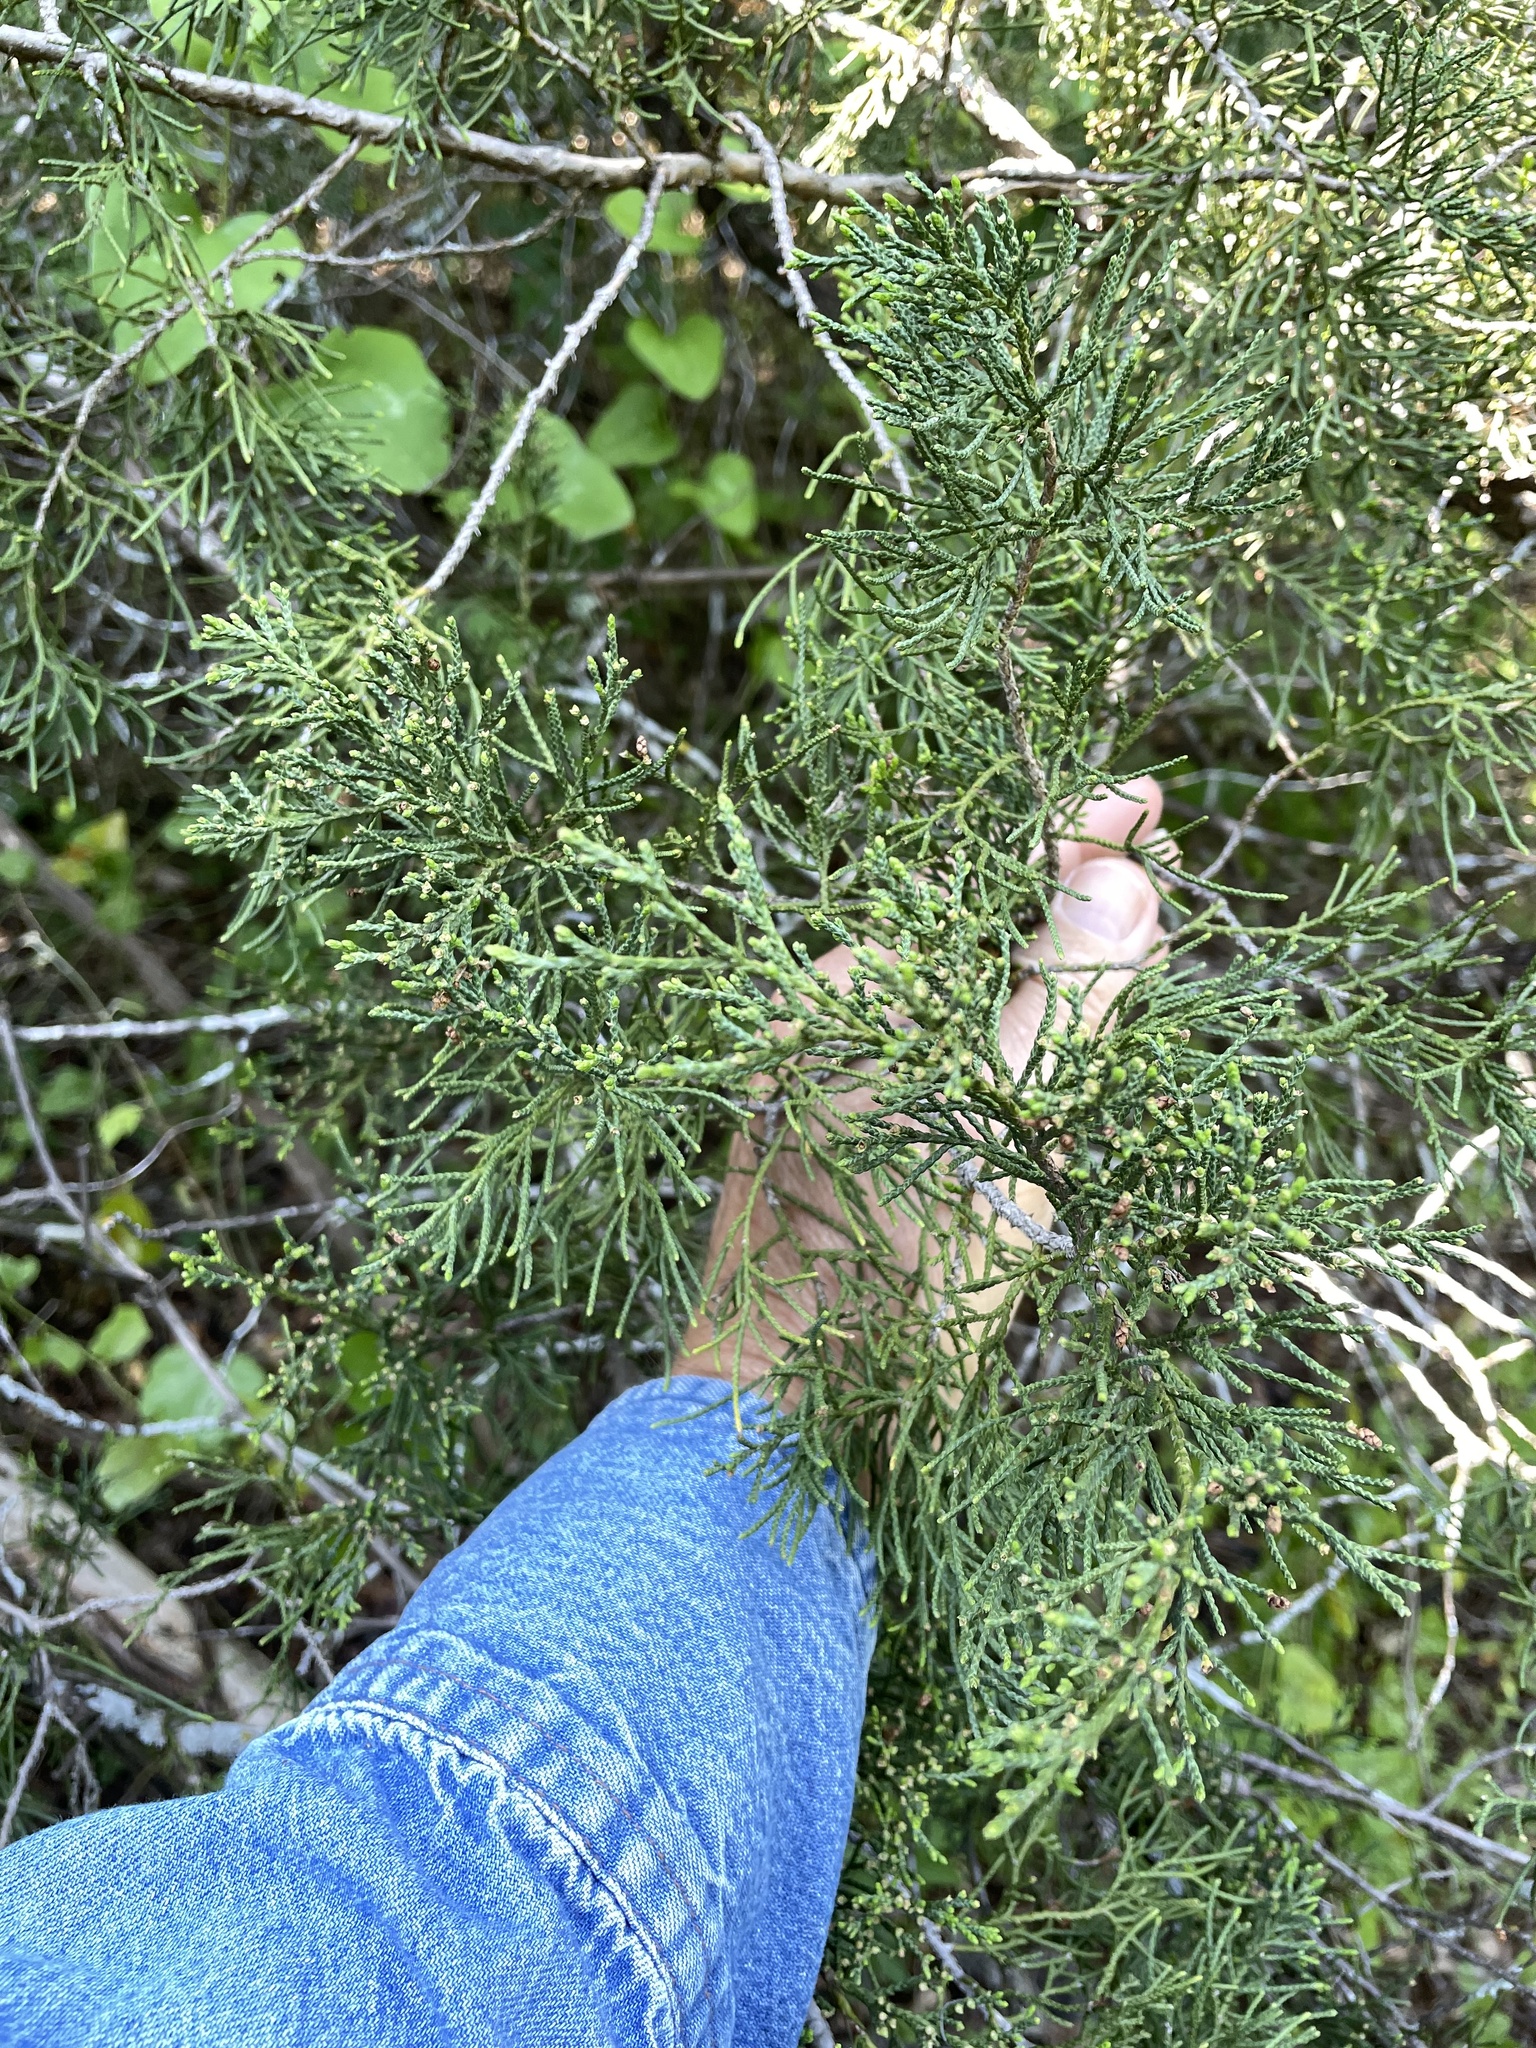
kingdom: Plantae
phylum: Tracheophyta
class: Pinopsida
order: Pinales
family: Cupressaceae
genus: Juniperus
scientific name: Juniperus virginiana
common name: Red juniper
